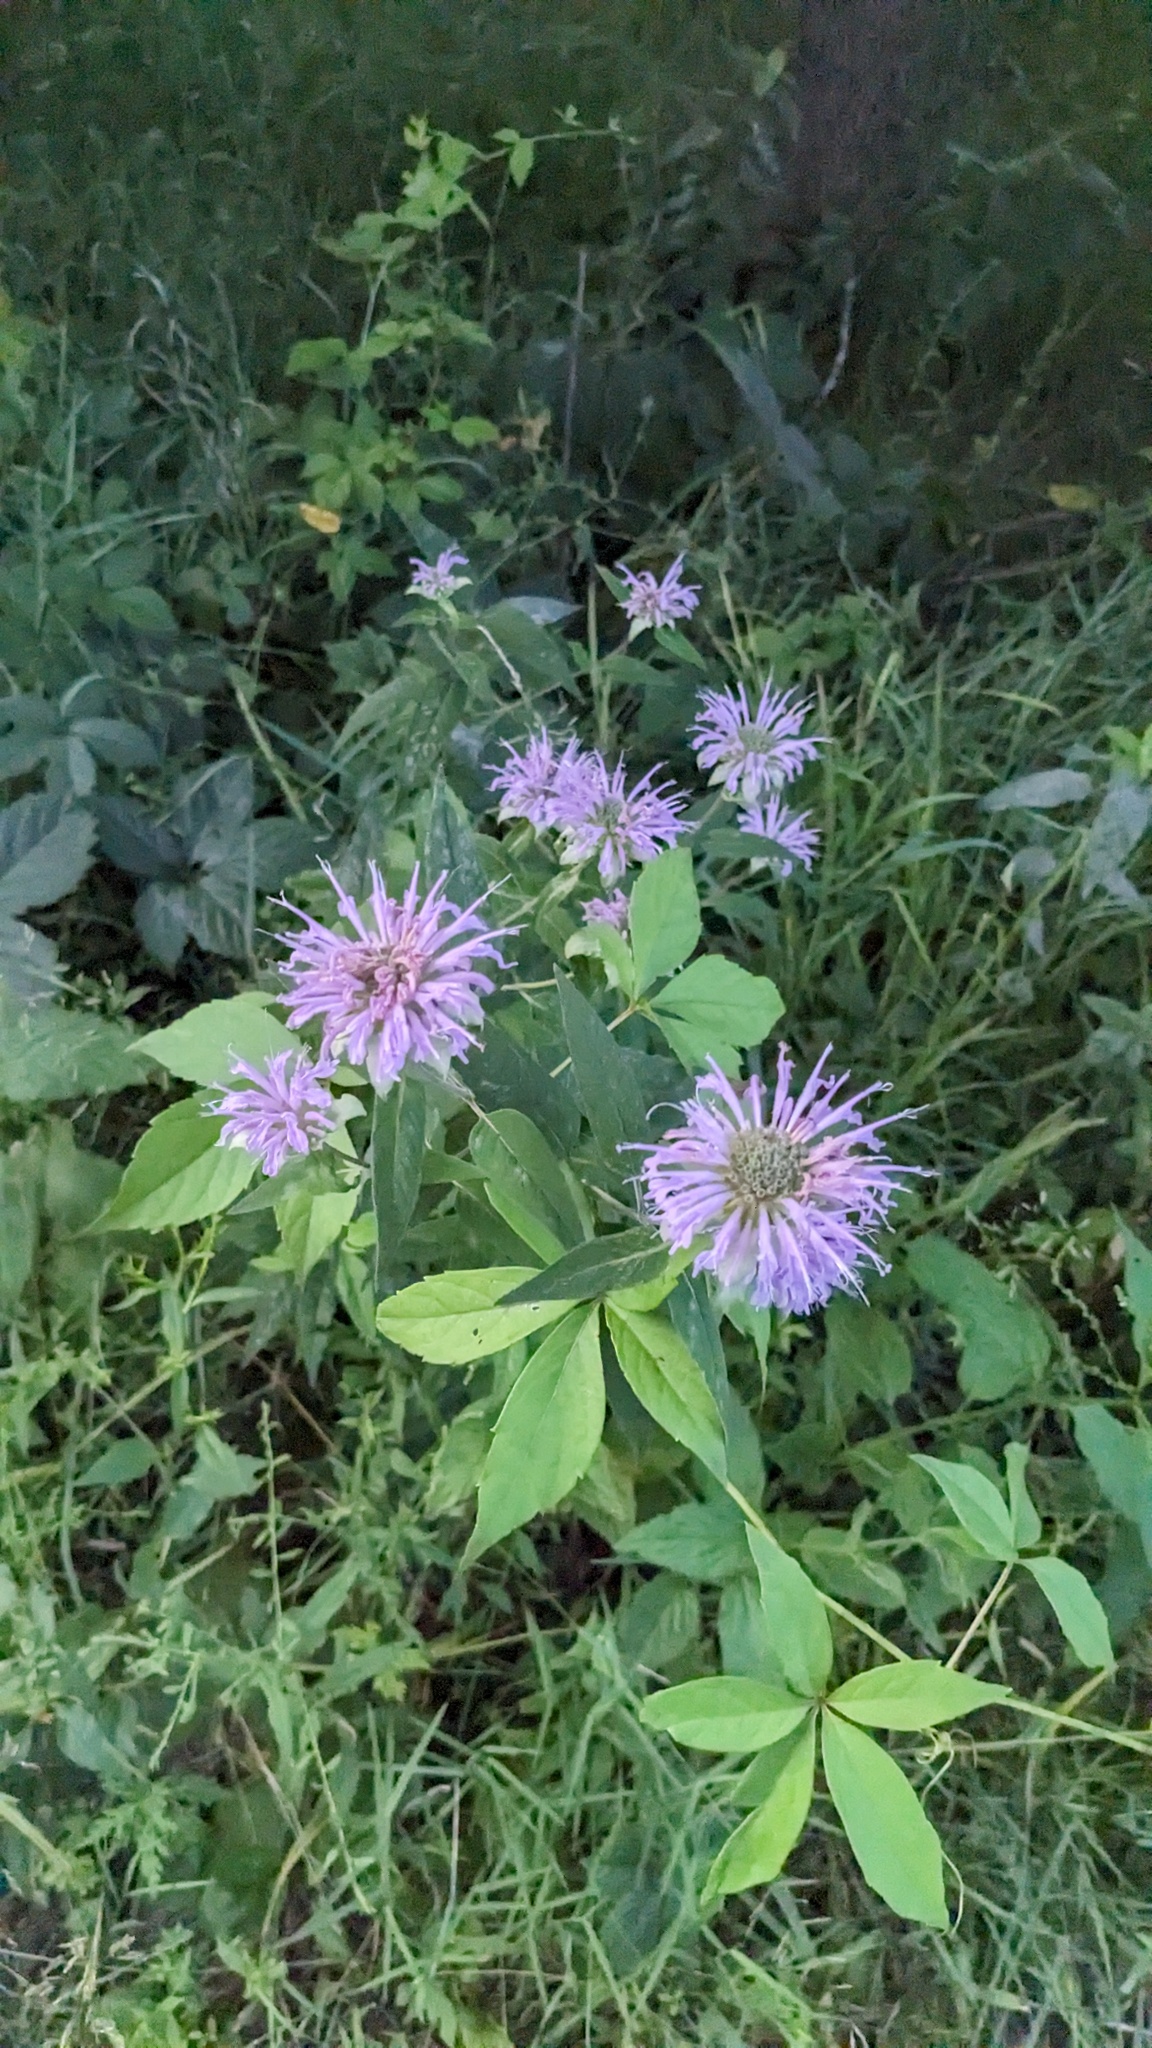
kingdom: Plantae
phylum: Tracheophyta
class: Magnoliopsida
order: Lamiales
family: Lamiaceae
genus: Monarda
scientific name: Monarda fistulosa
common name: Purple beebalm
